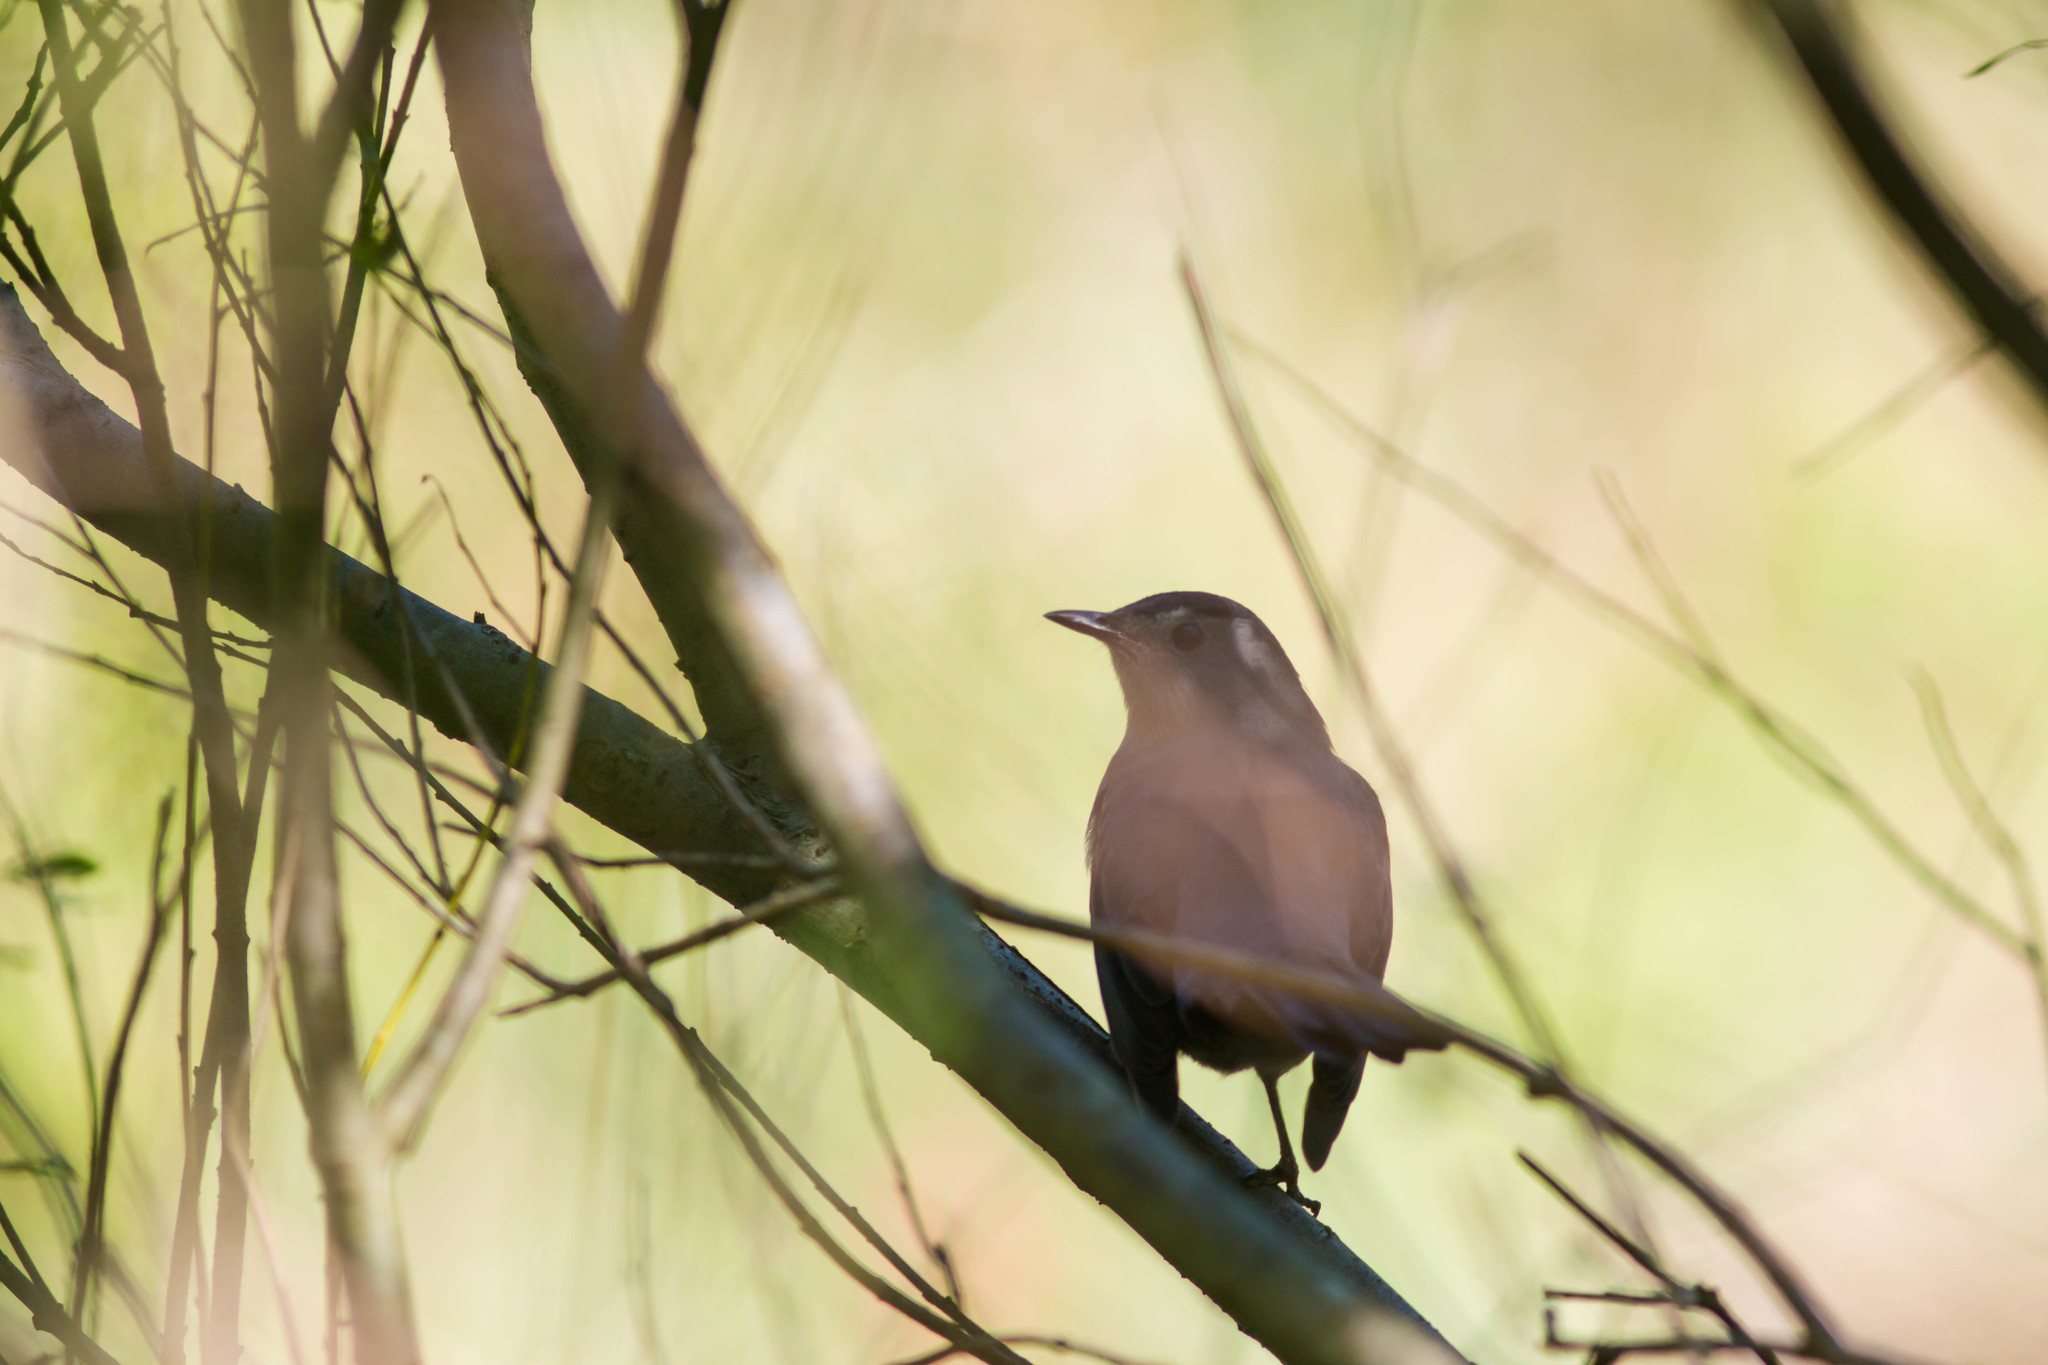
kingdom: Animalia
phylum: Chordata
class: Aves
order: Passeriformes
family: Mimidae
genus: Dumetella
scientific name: Dumetella carolinensis
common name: Gray catbird
